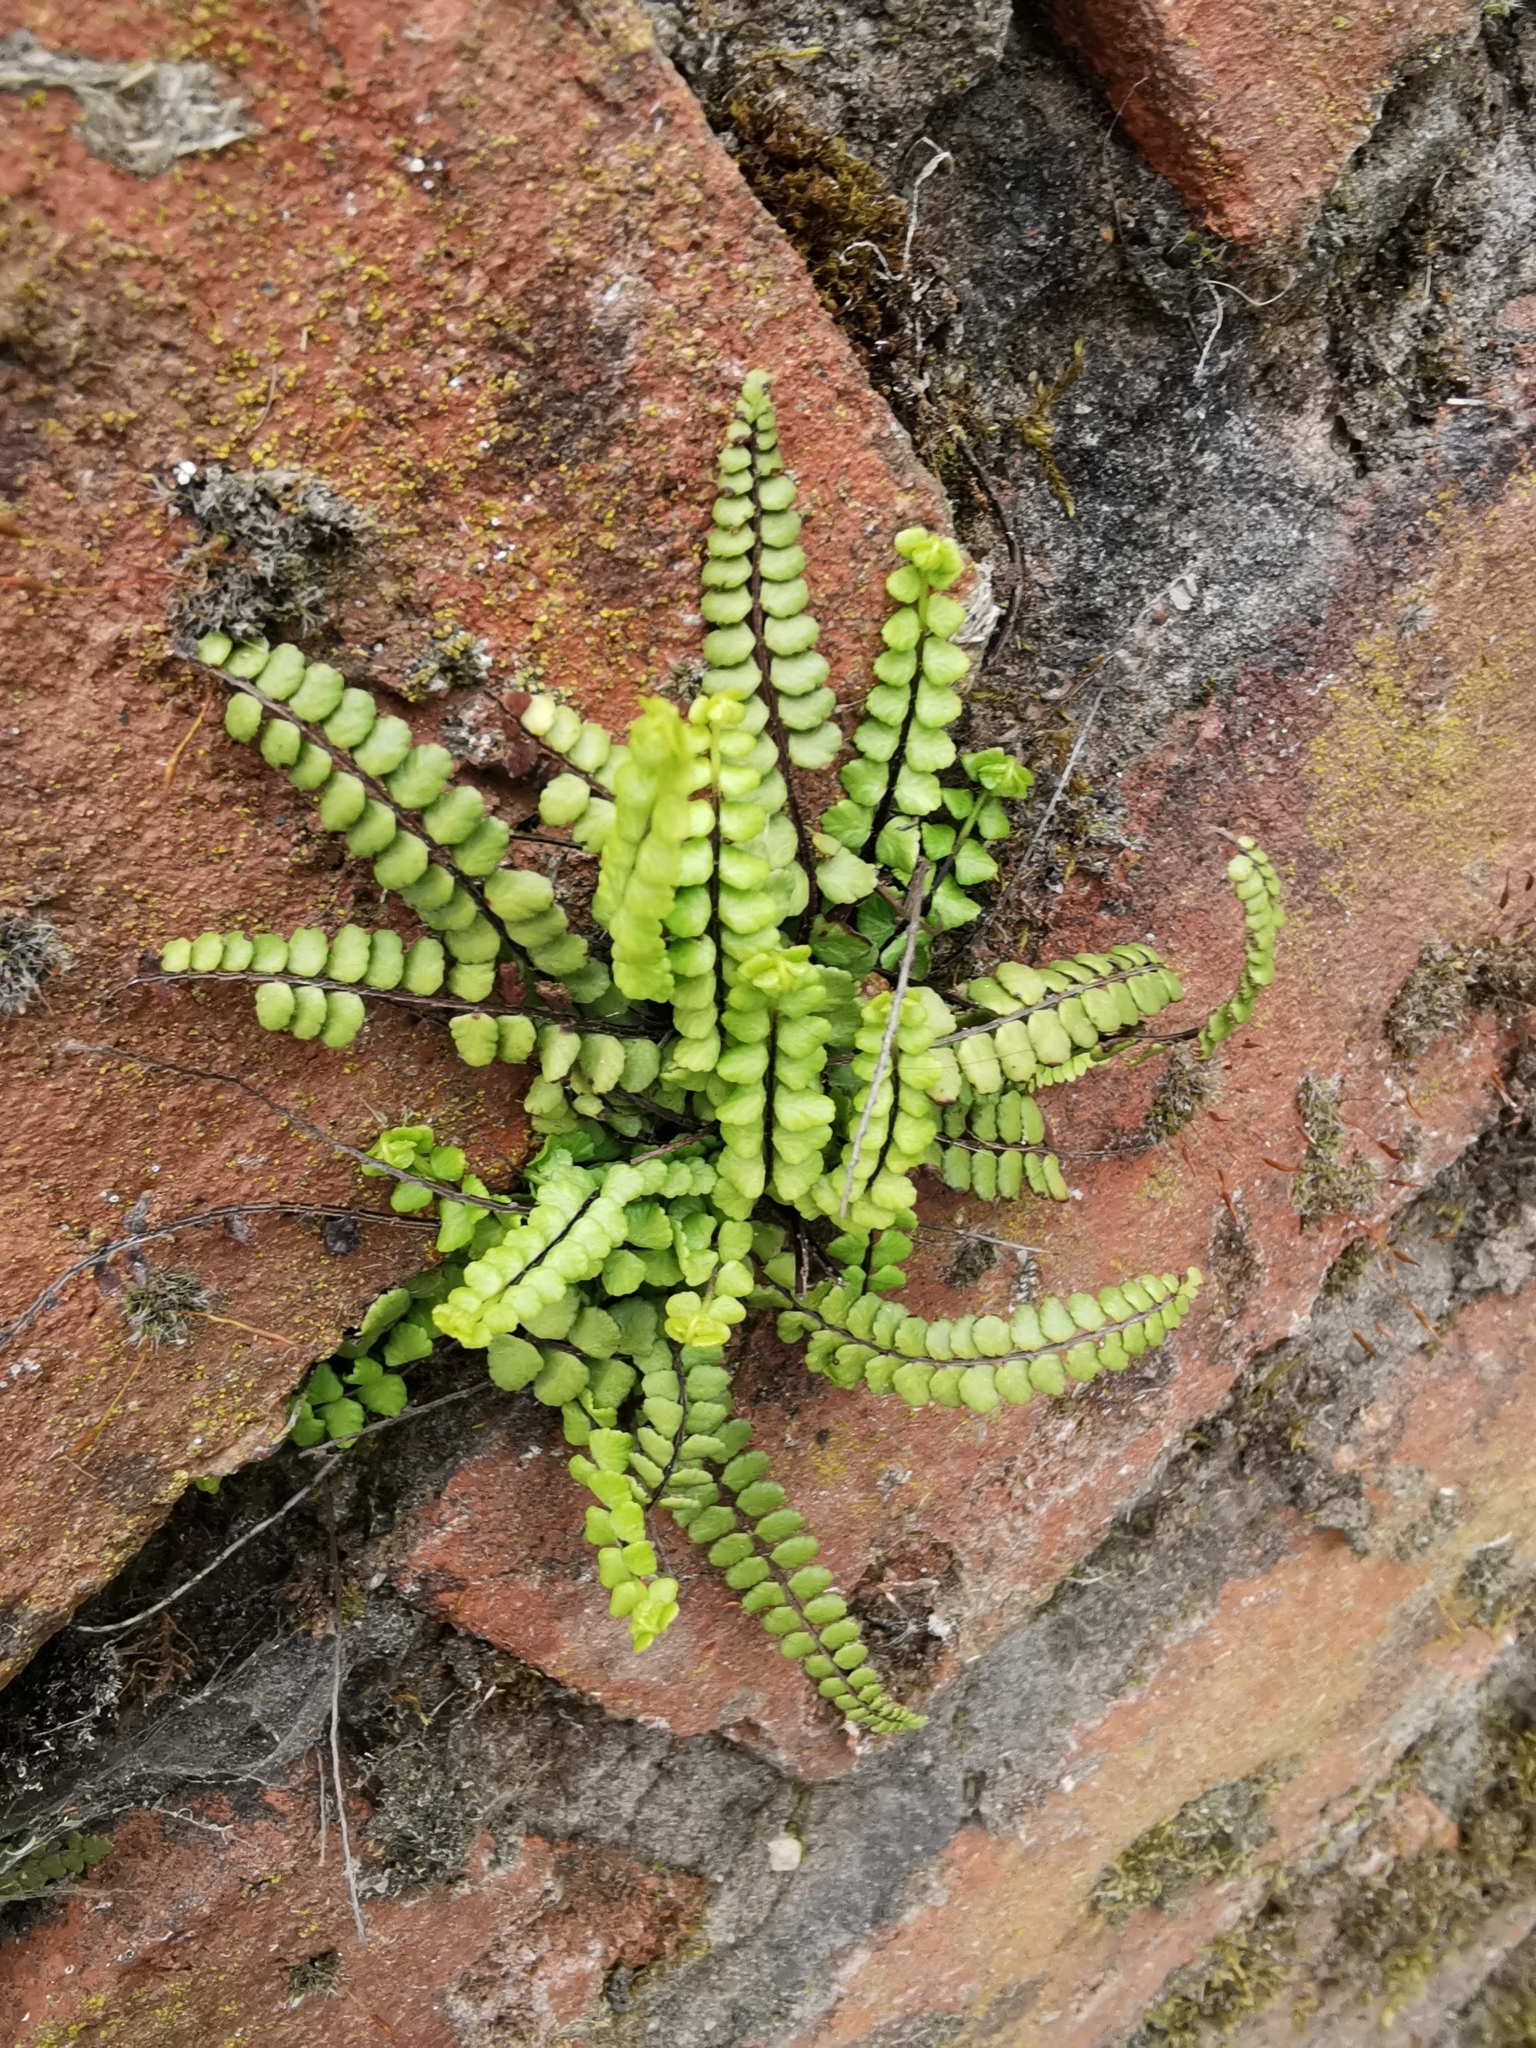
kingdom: Plantae
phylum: Tracheophyta
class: Polypodiopsida
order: Polypodiales
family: Aspleniaceae
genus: Asplenium
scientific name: Asplenium trichomanes
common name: Maidenhair spleenwort
